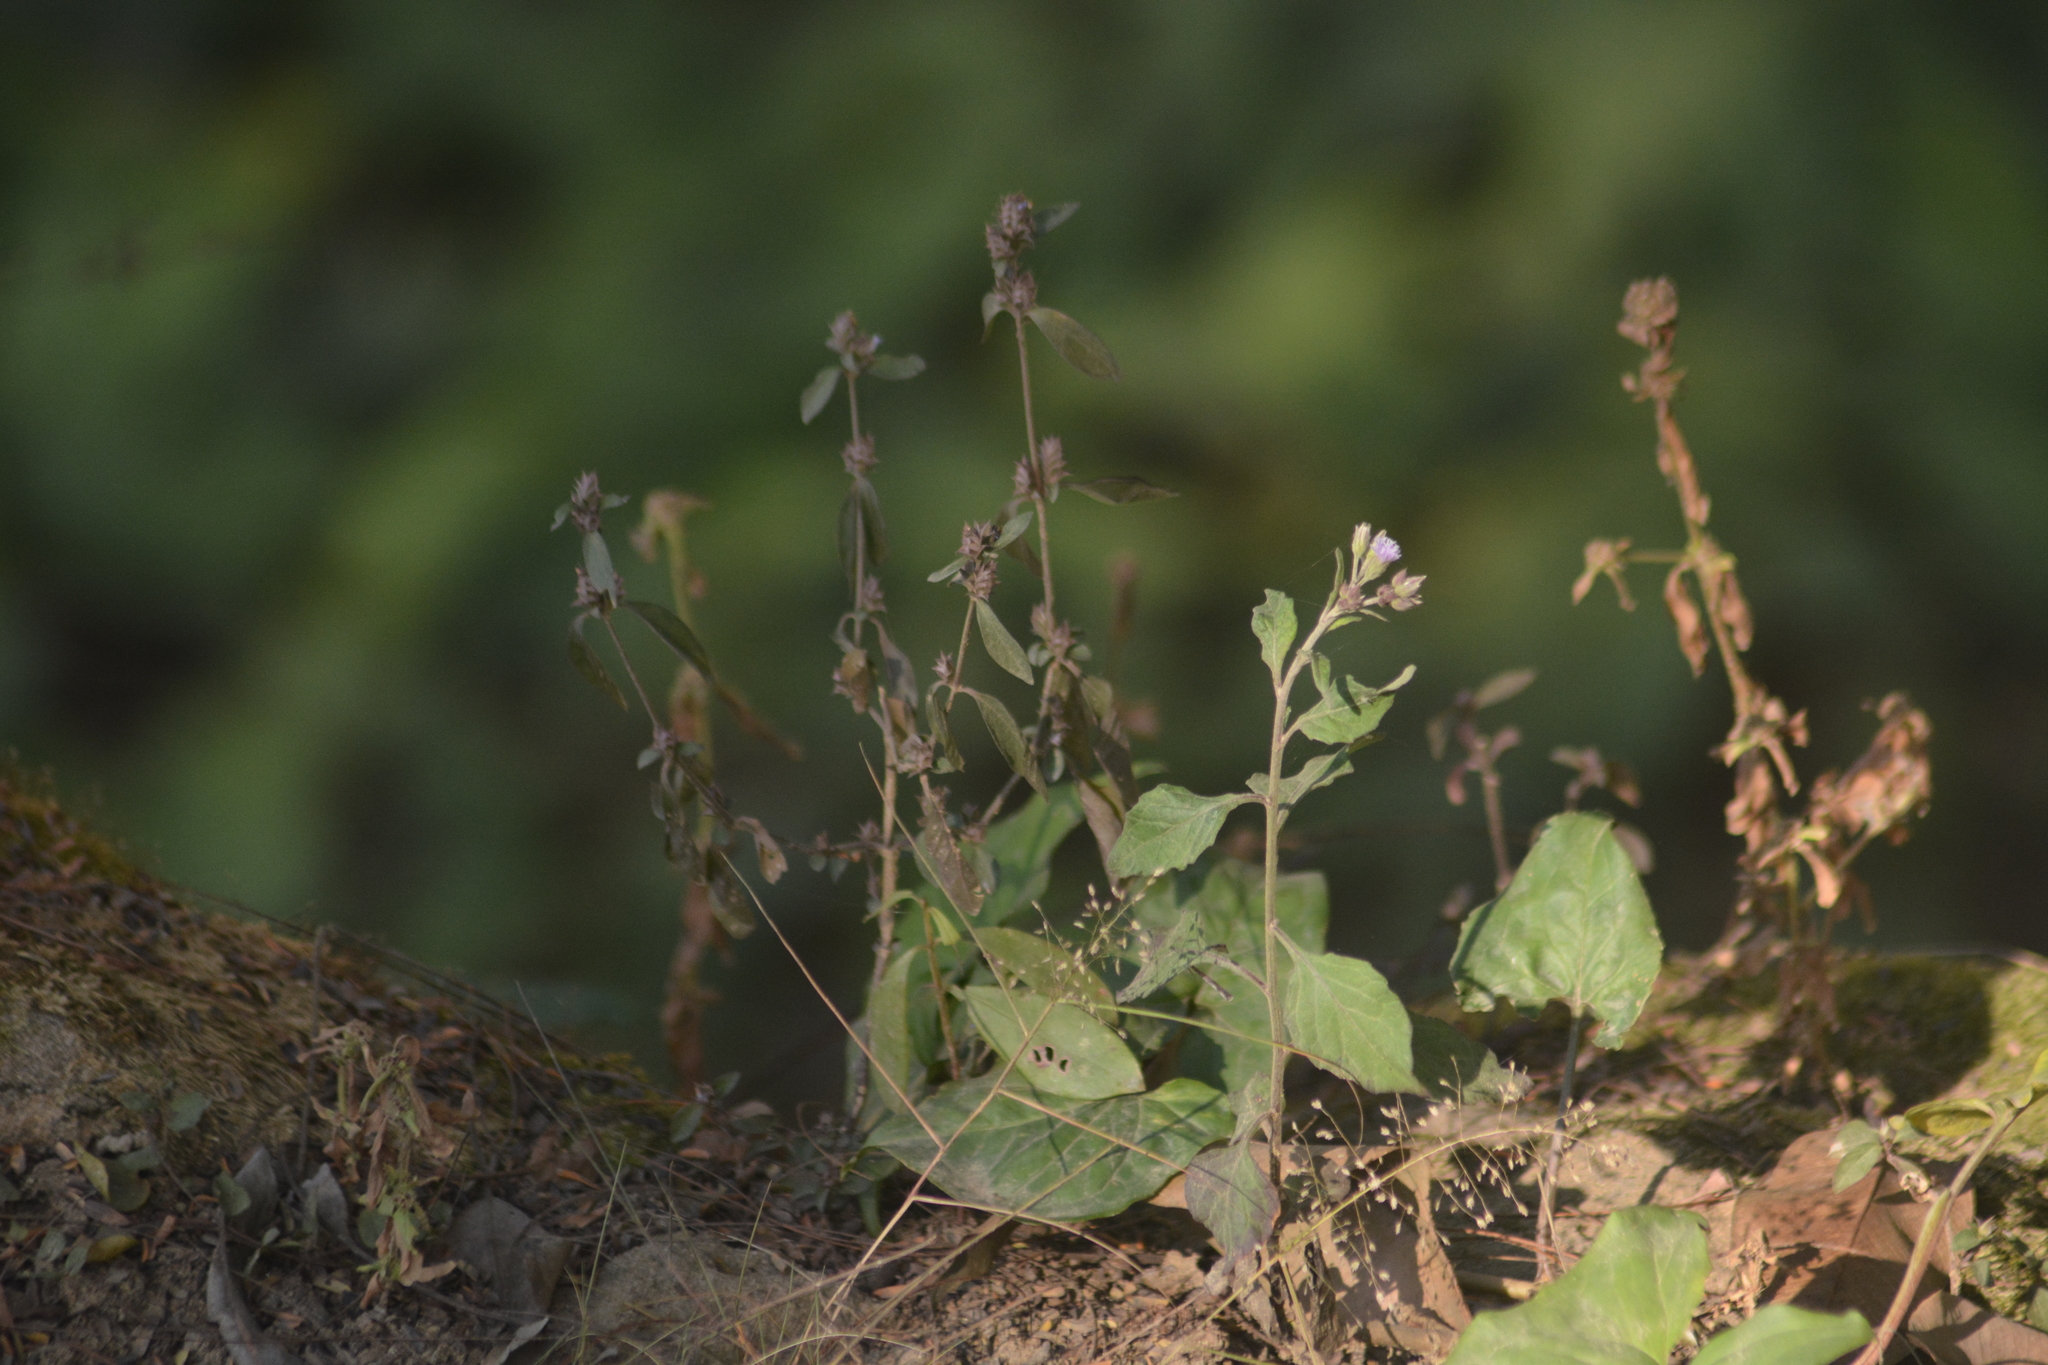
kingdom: Plantae
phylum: Tracheophyta
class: Magnoliopsida
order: Asterales
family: Asteraceae
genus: Cyanthillium
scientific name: Cyanthillium cinereum
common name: Little ironweed
